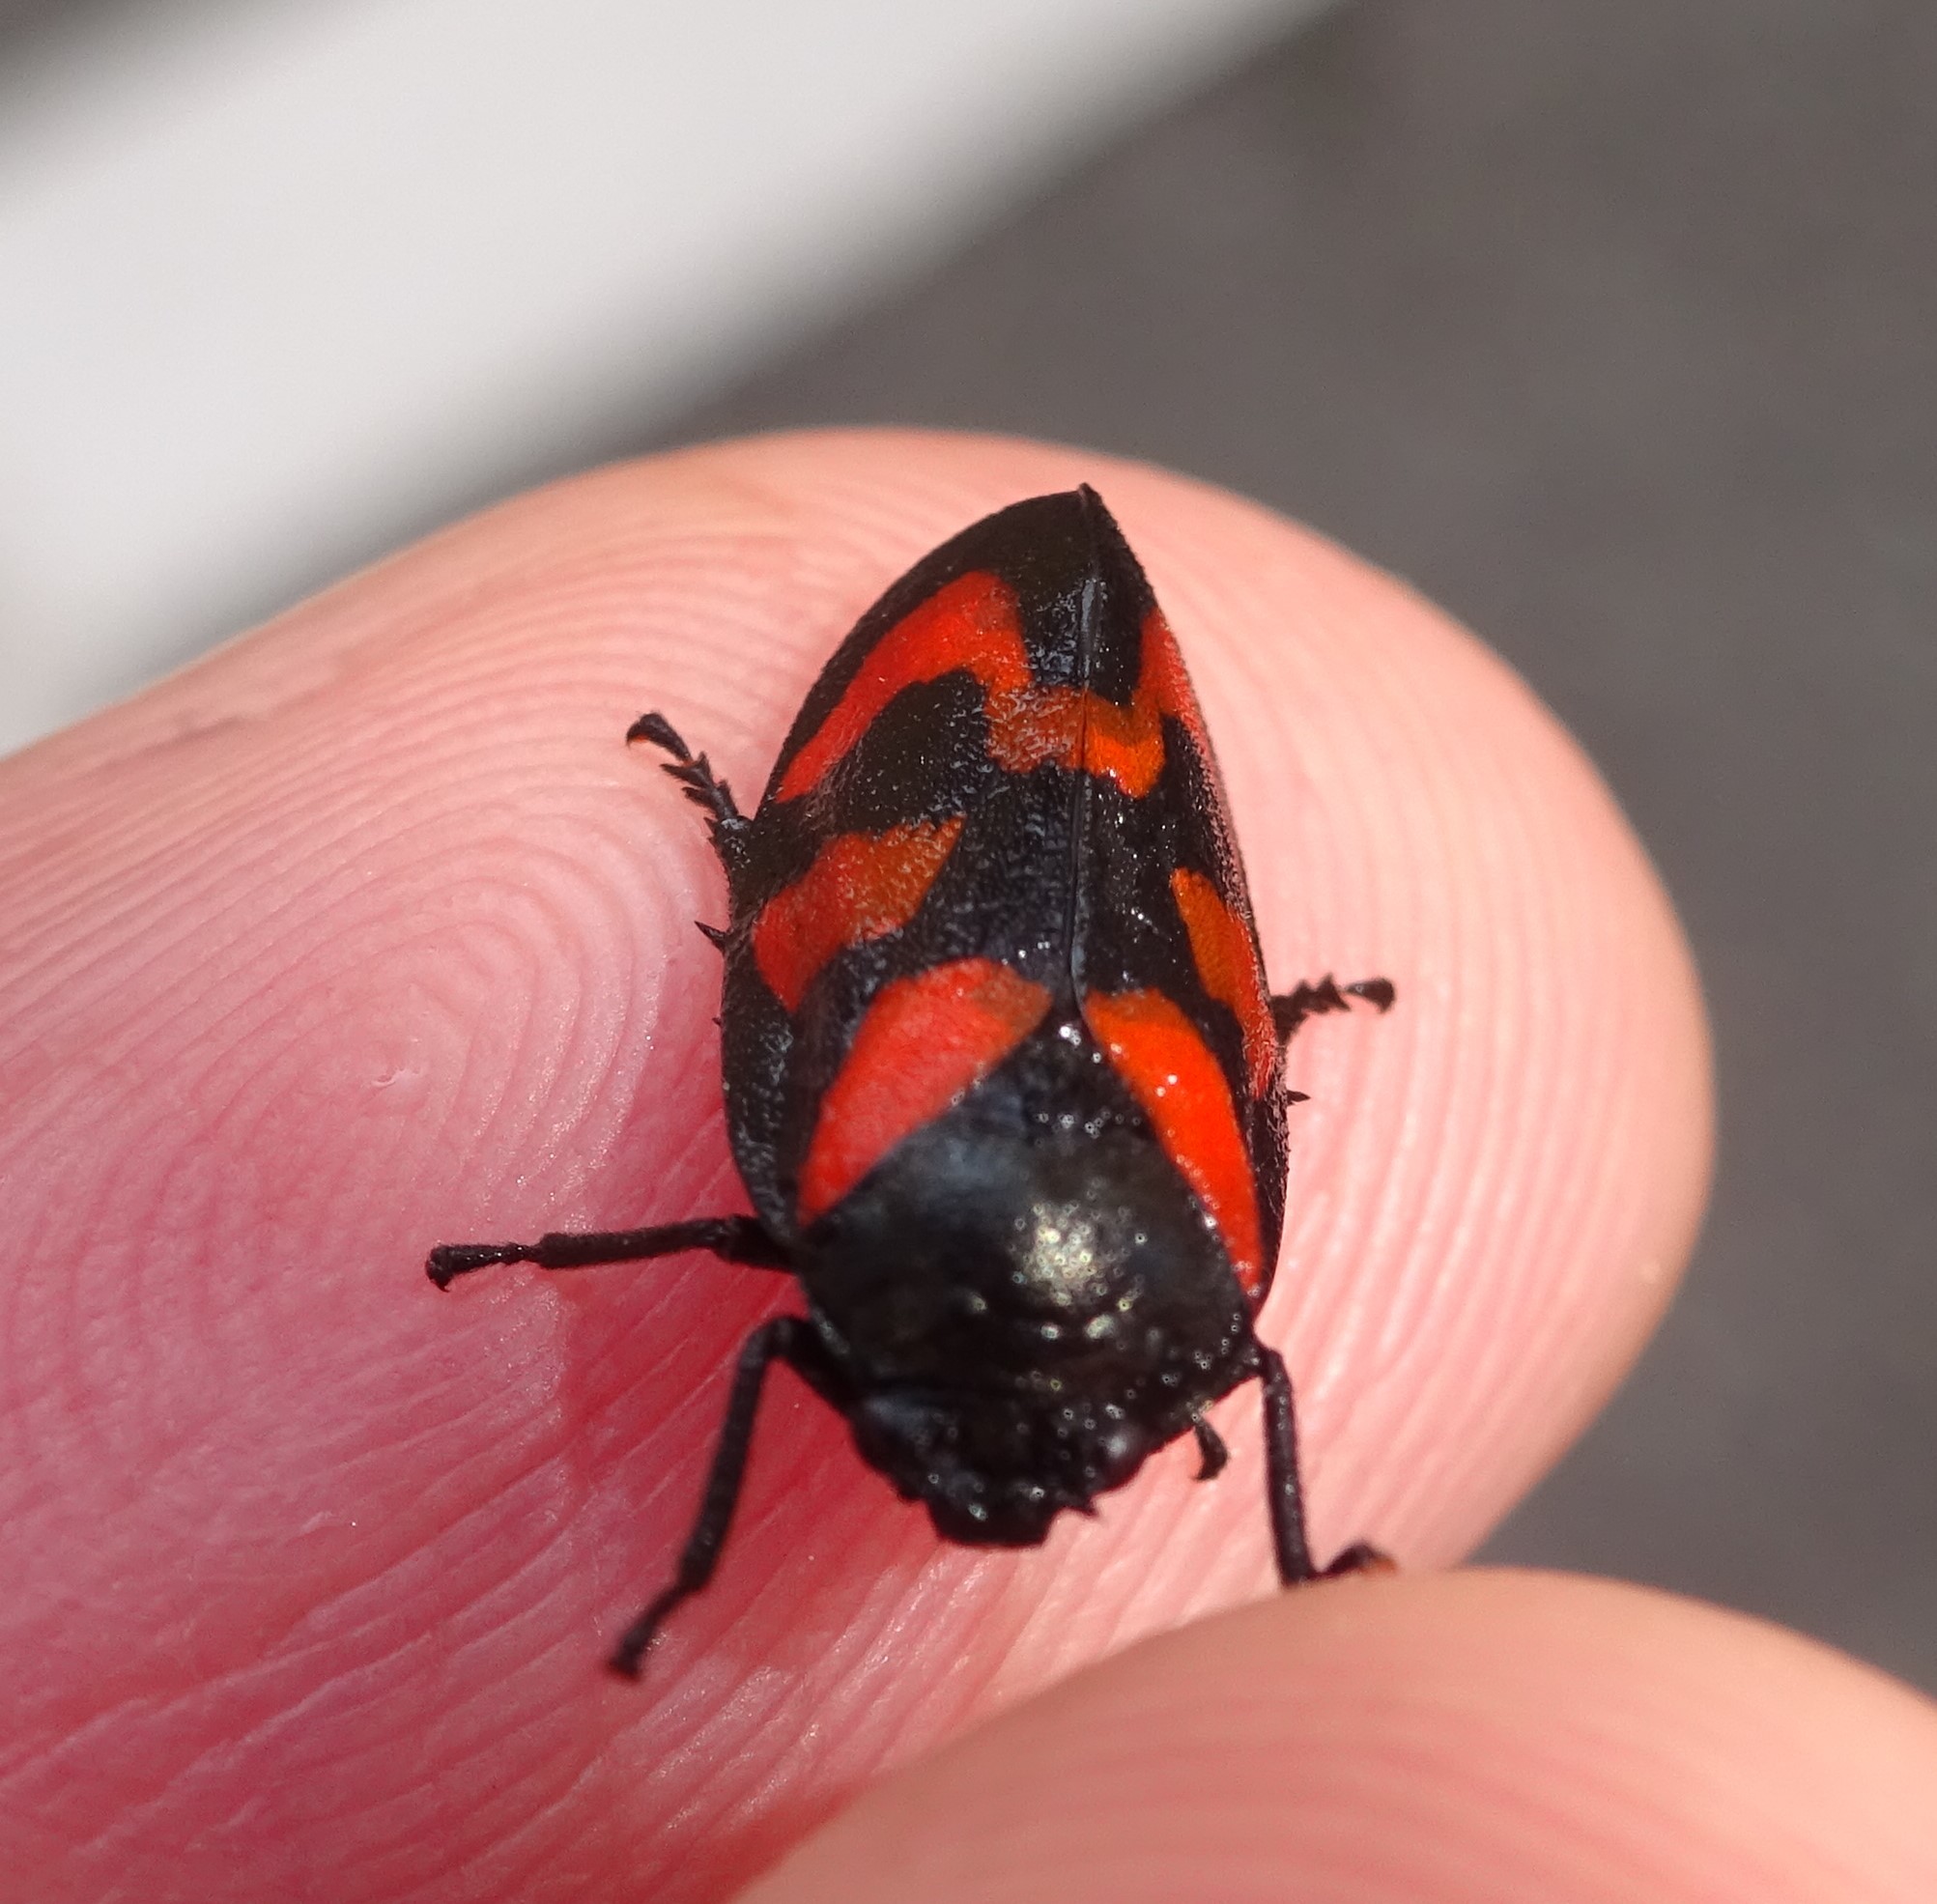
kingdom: Animalia
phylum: Arthropoda
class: Insecta
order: Hemiptera
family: Cercopidae
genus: Cercopis
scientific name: Cercopis vulnerata
